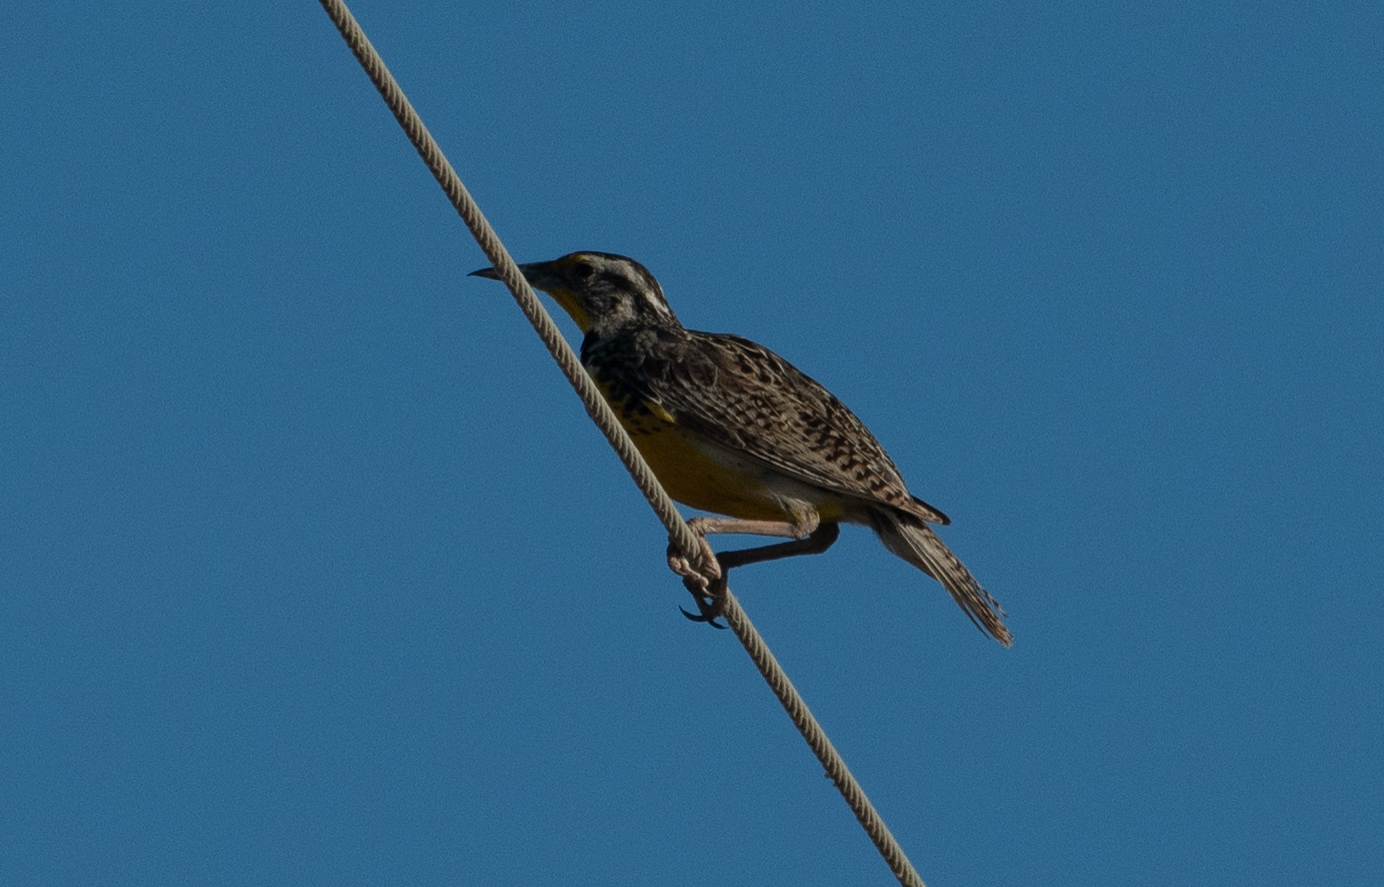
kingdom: Animalia
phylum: Chordata
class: Aves
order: Passeriformes
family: Icteridae
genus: Sturnella
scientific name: Sturnella neglecta
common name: Western meadowlark
